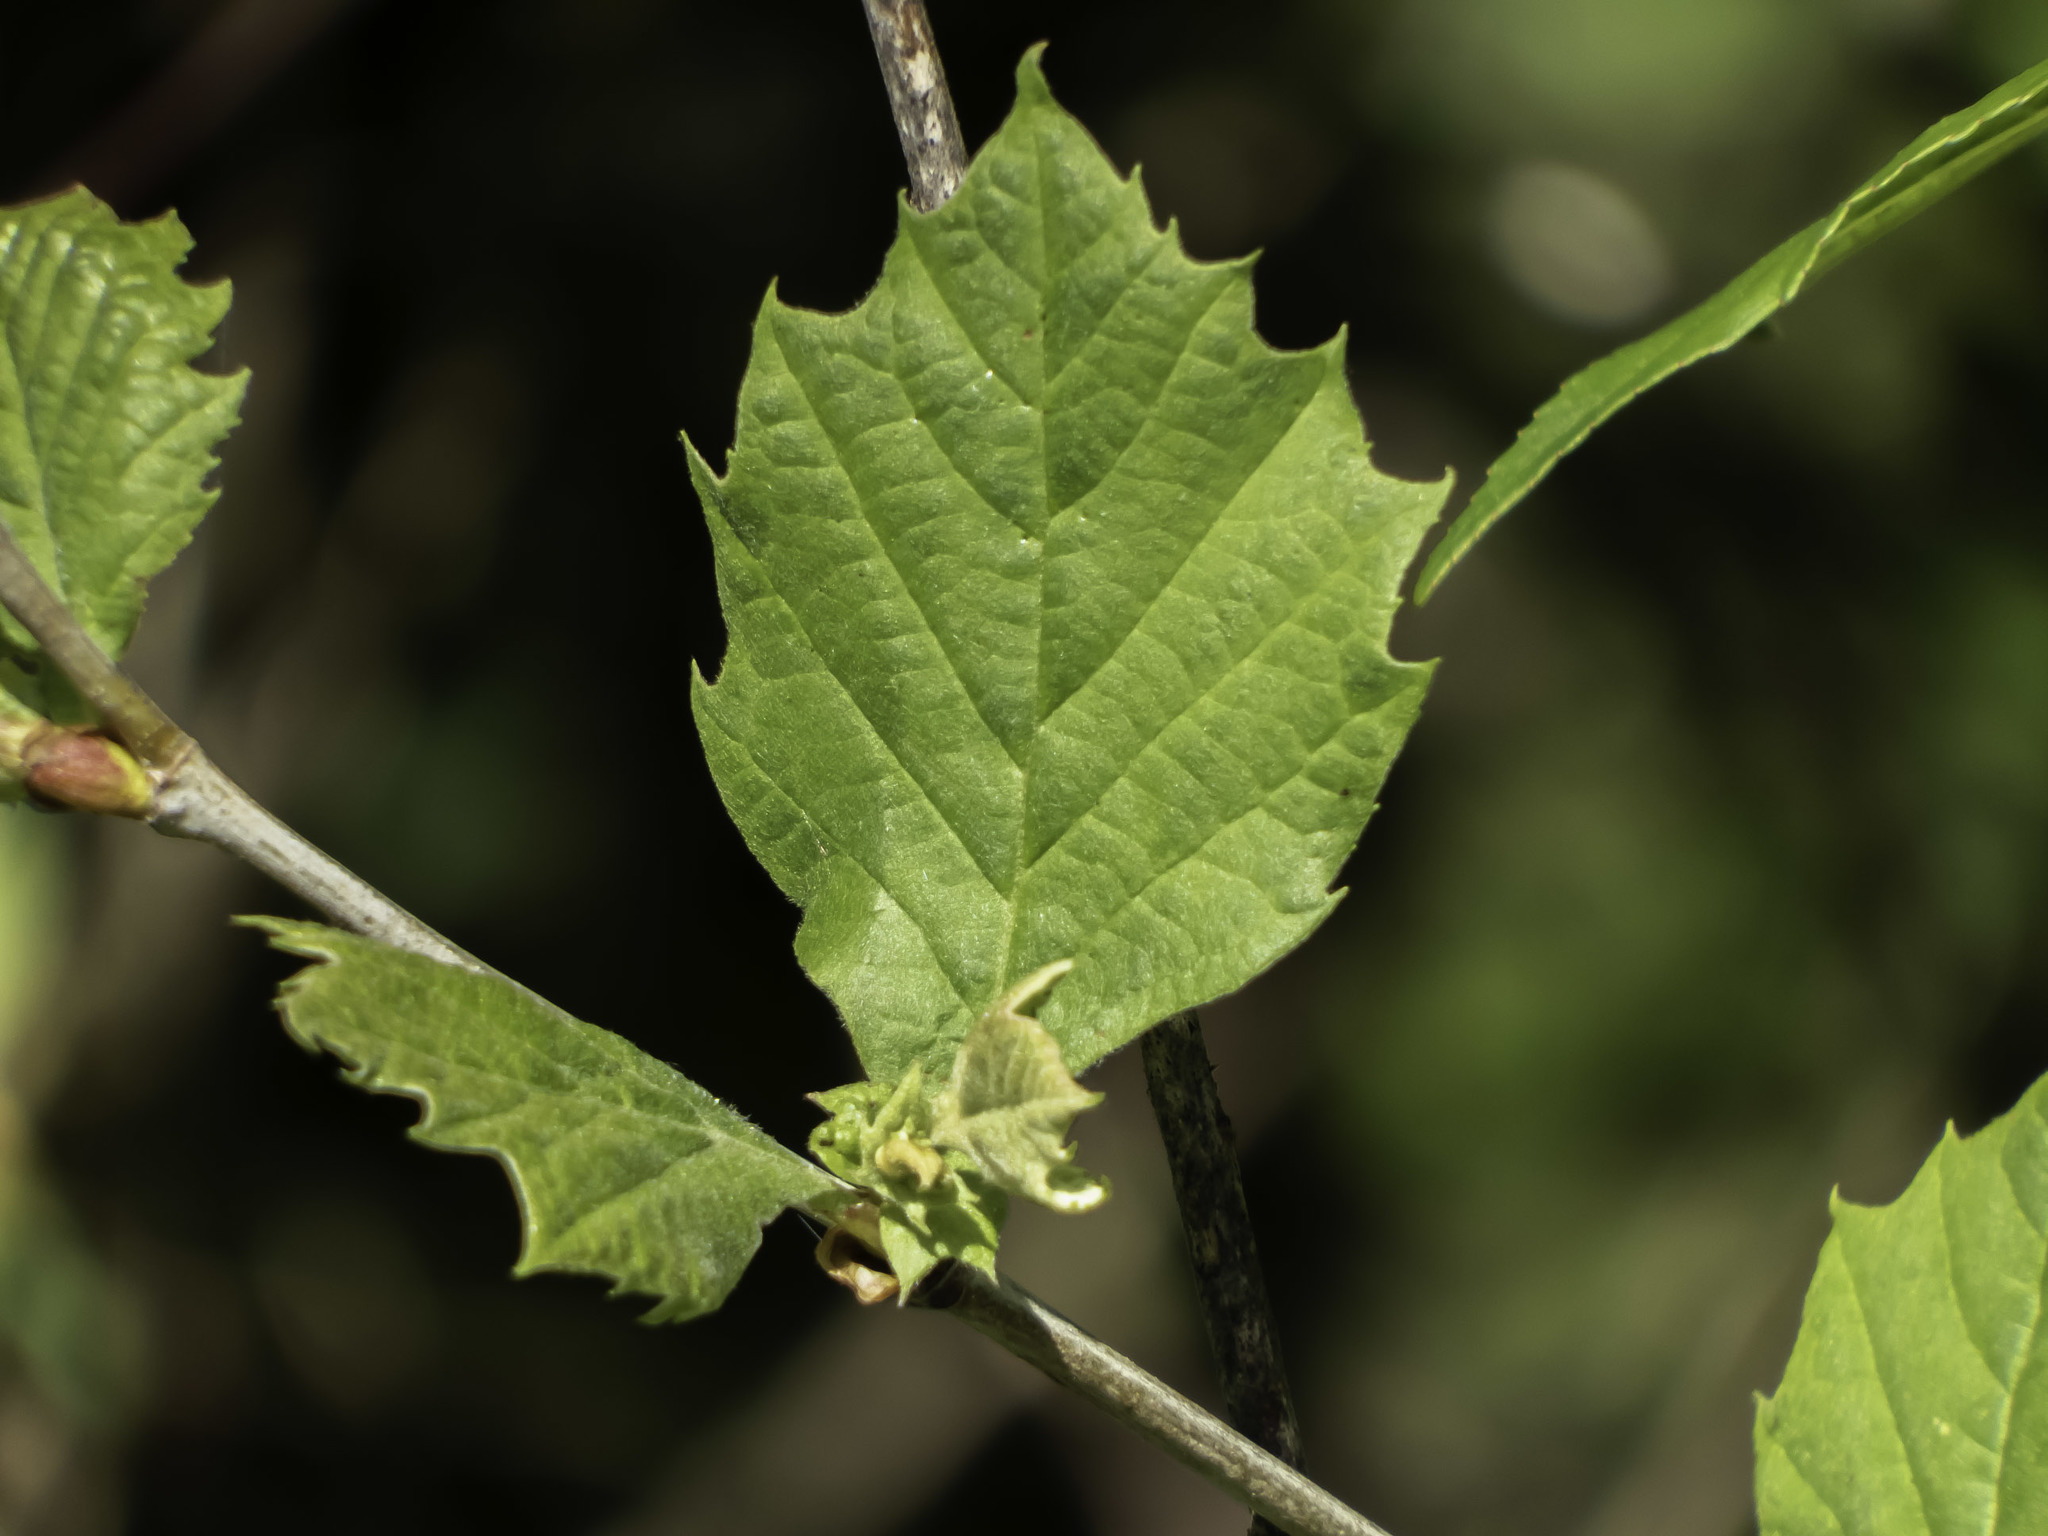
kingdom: Plantae
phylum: Tracheophyta
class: Magnoliopsida
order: Proteales
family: Platanaceae
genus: Platanus
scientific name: Platanus occidentalis
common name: American sycamore
